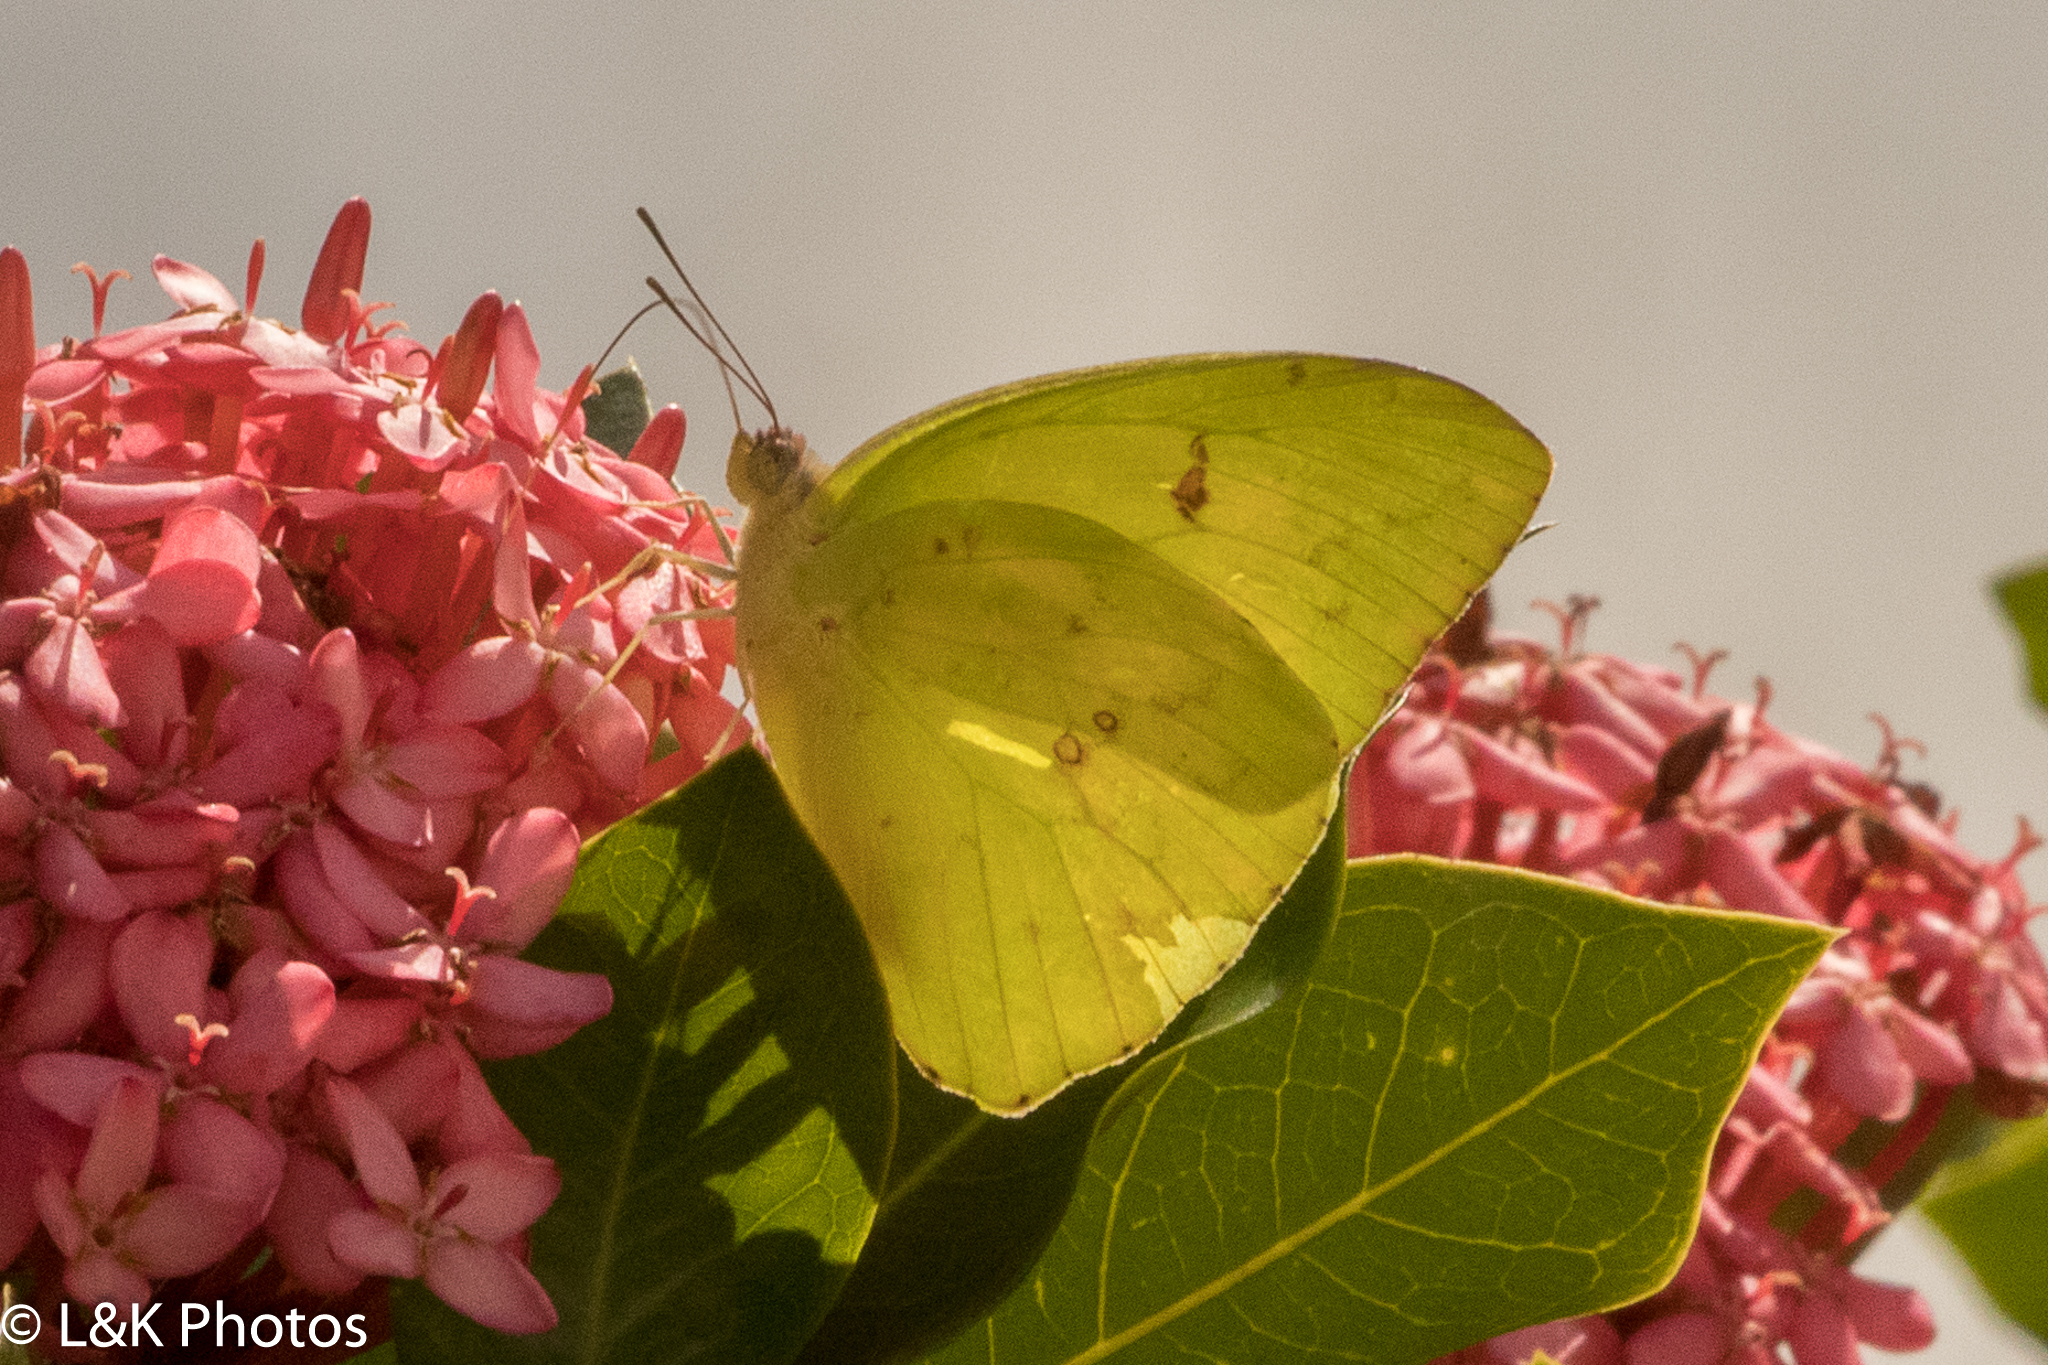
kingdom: Animalia
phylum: Arthropoda
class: Insecta
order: Lepidoptera
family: Pieridae
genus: Phoebis
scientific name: Phoebis sennae
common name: Cloudless sulphur
